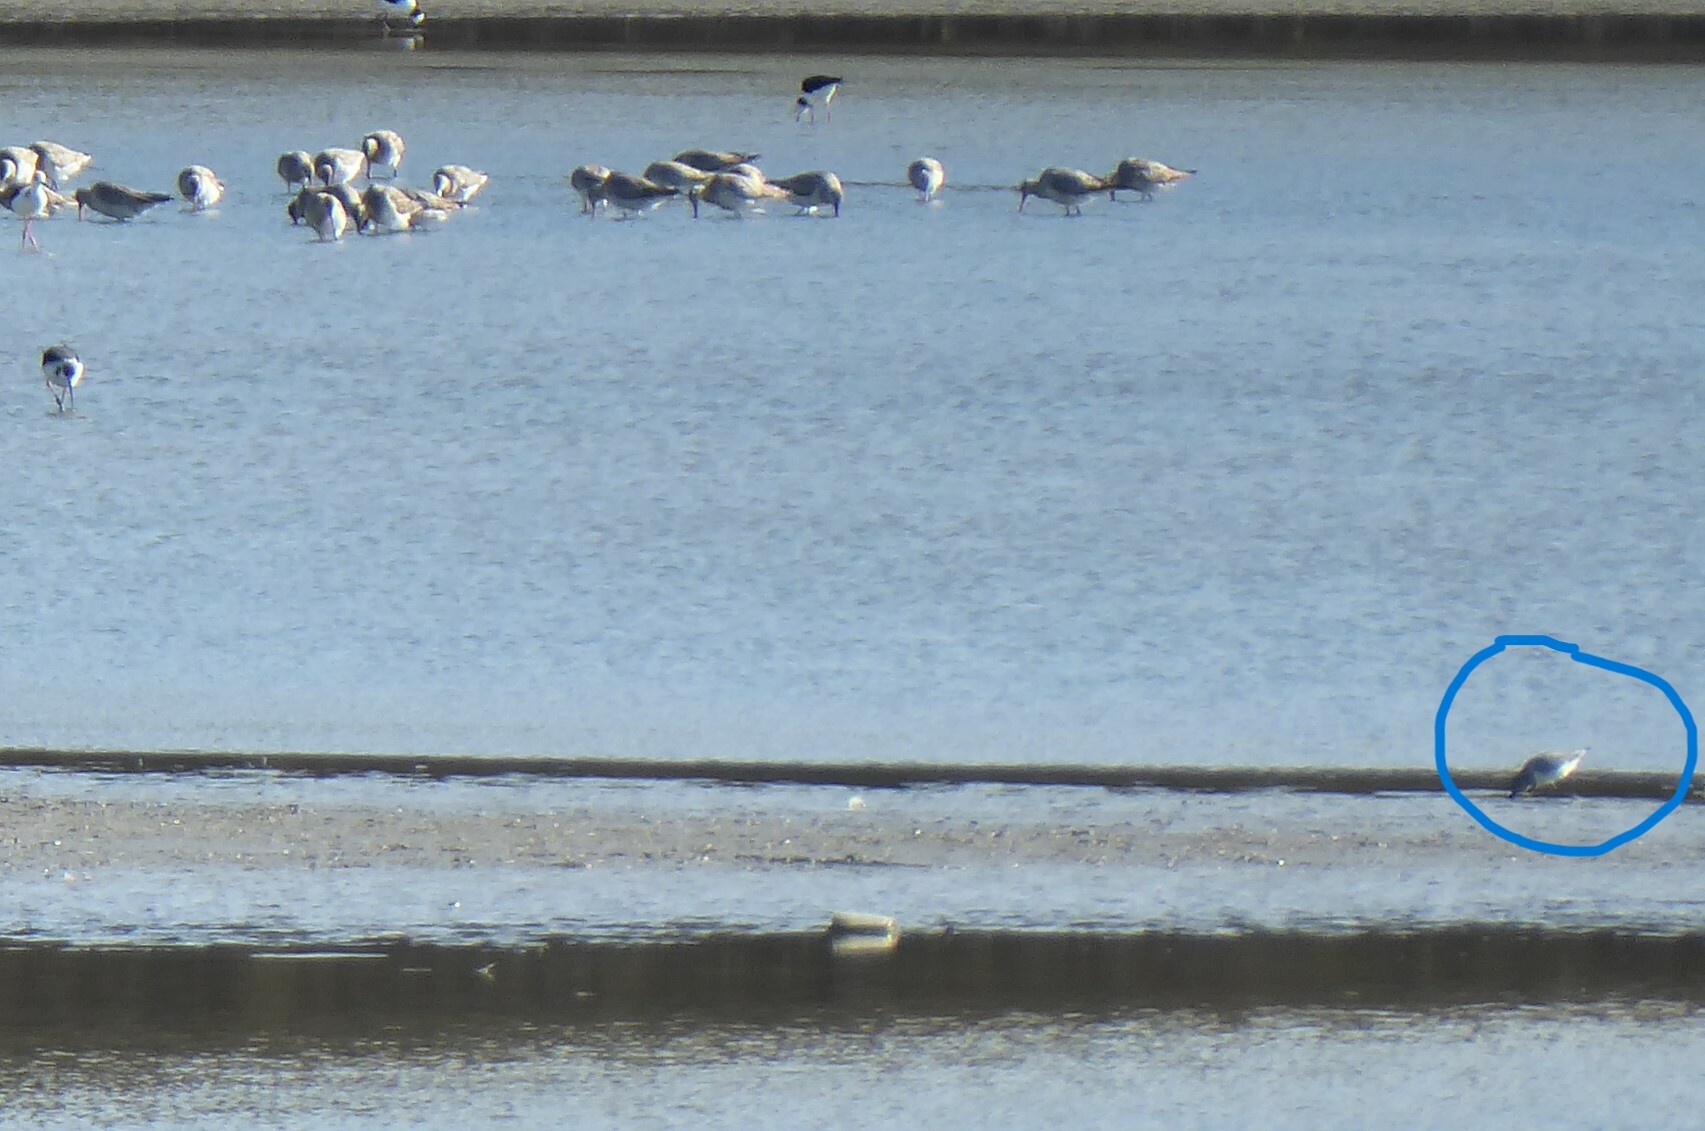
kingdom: Animalia
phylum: Chordata
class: Aves
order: Charadriiformes
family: Charadriidae
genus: Anarhynchus
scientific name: Anarhynchus frontalis
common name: Wrybill
